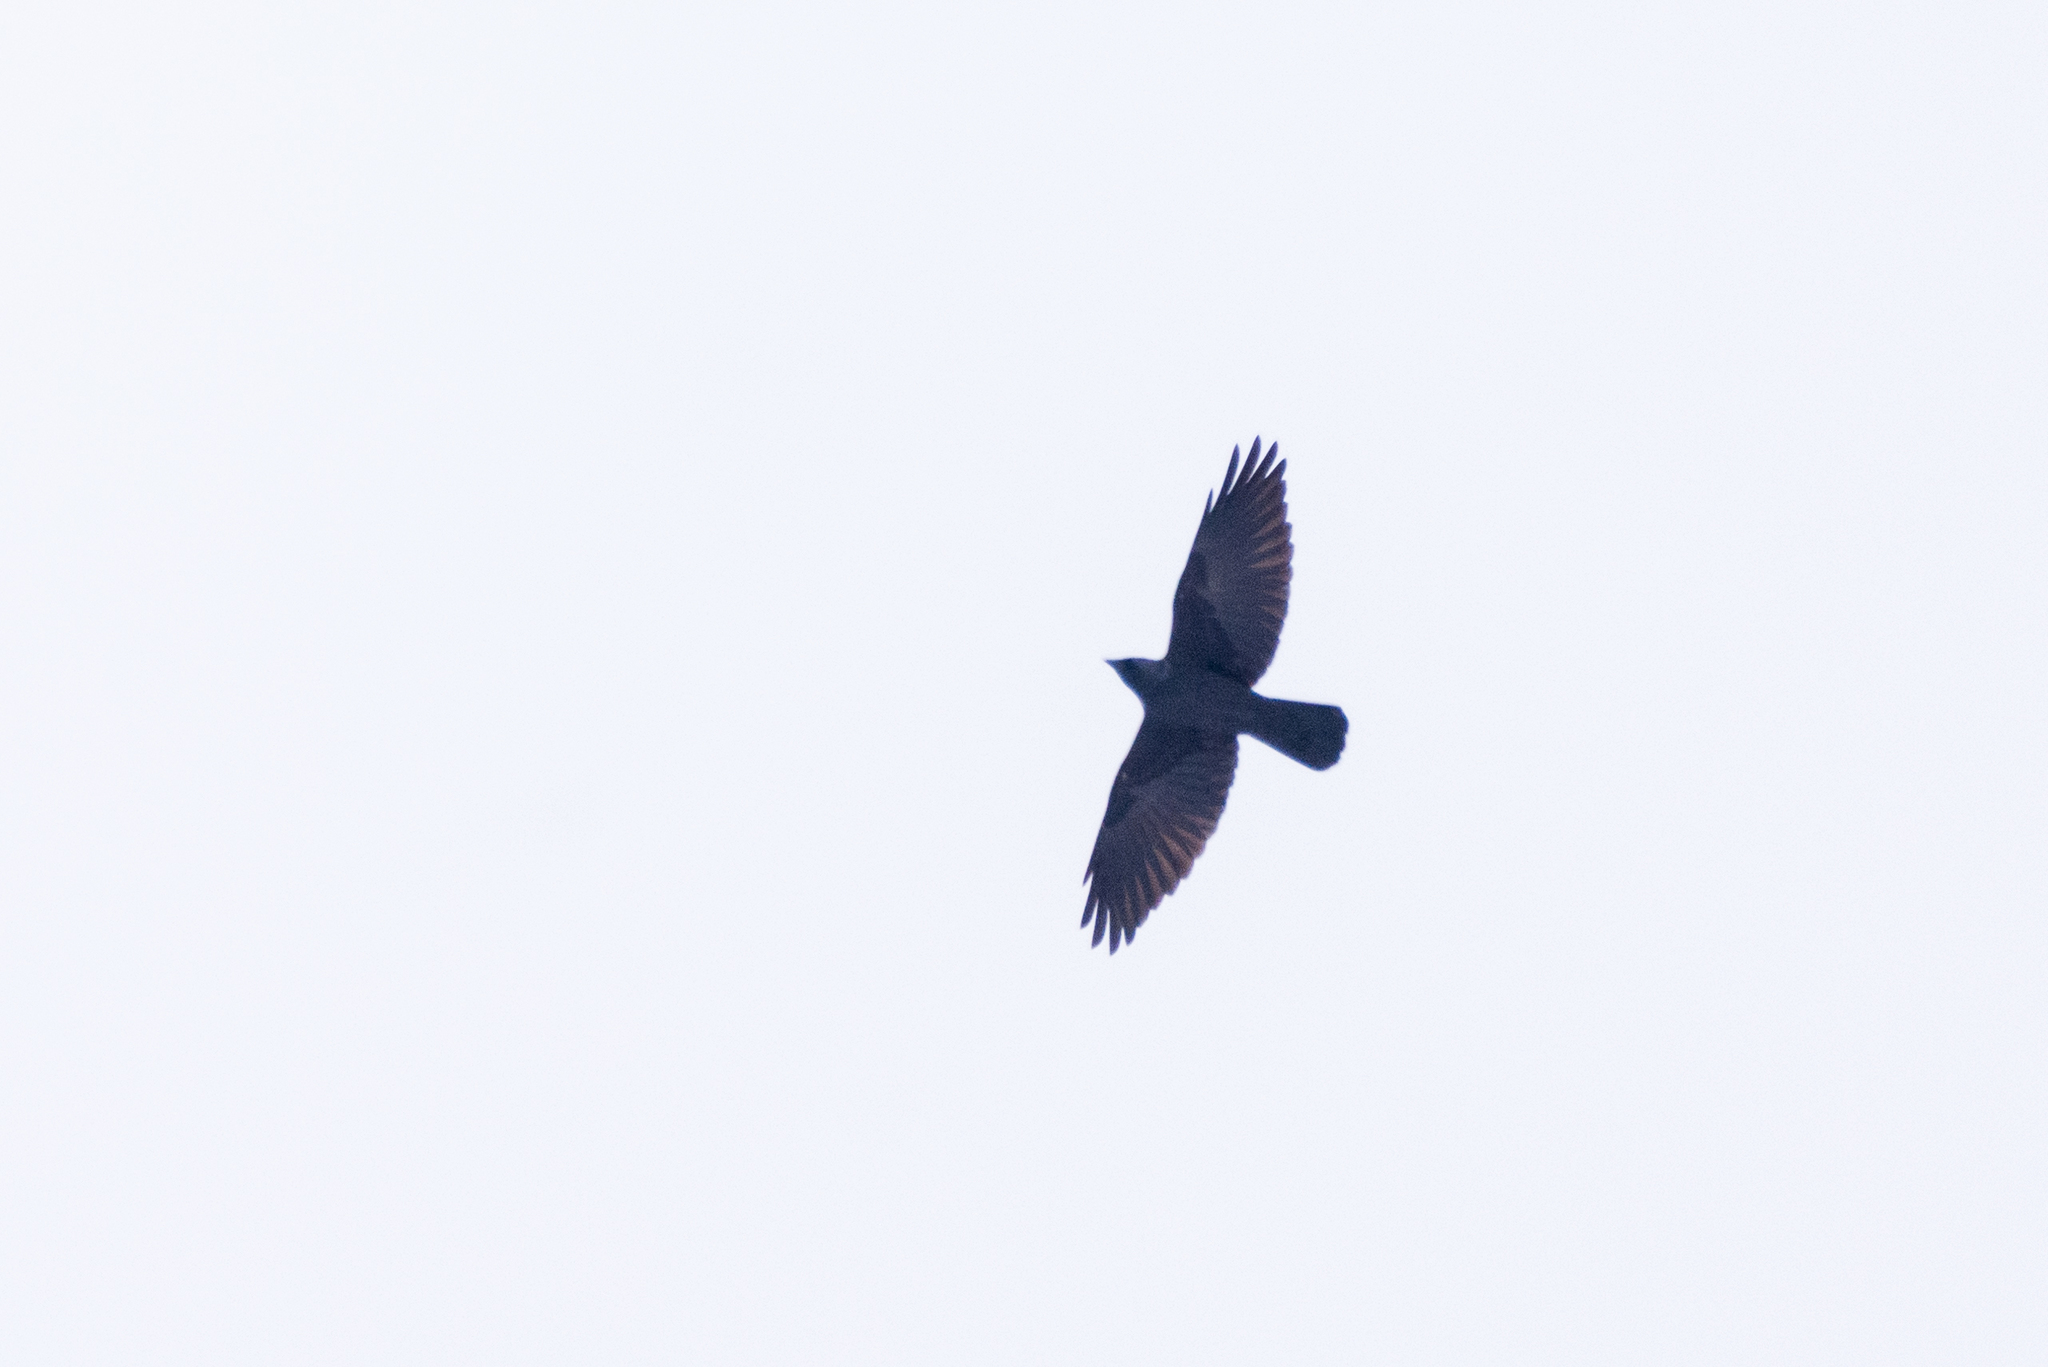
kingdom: Animalia
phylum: Chordata
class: Aves
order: Passeriformes
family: Corvidae
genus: Coloeus
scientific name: Coloeus monedula
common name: Western jackdaw
